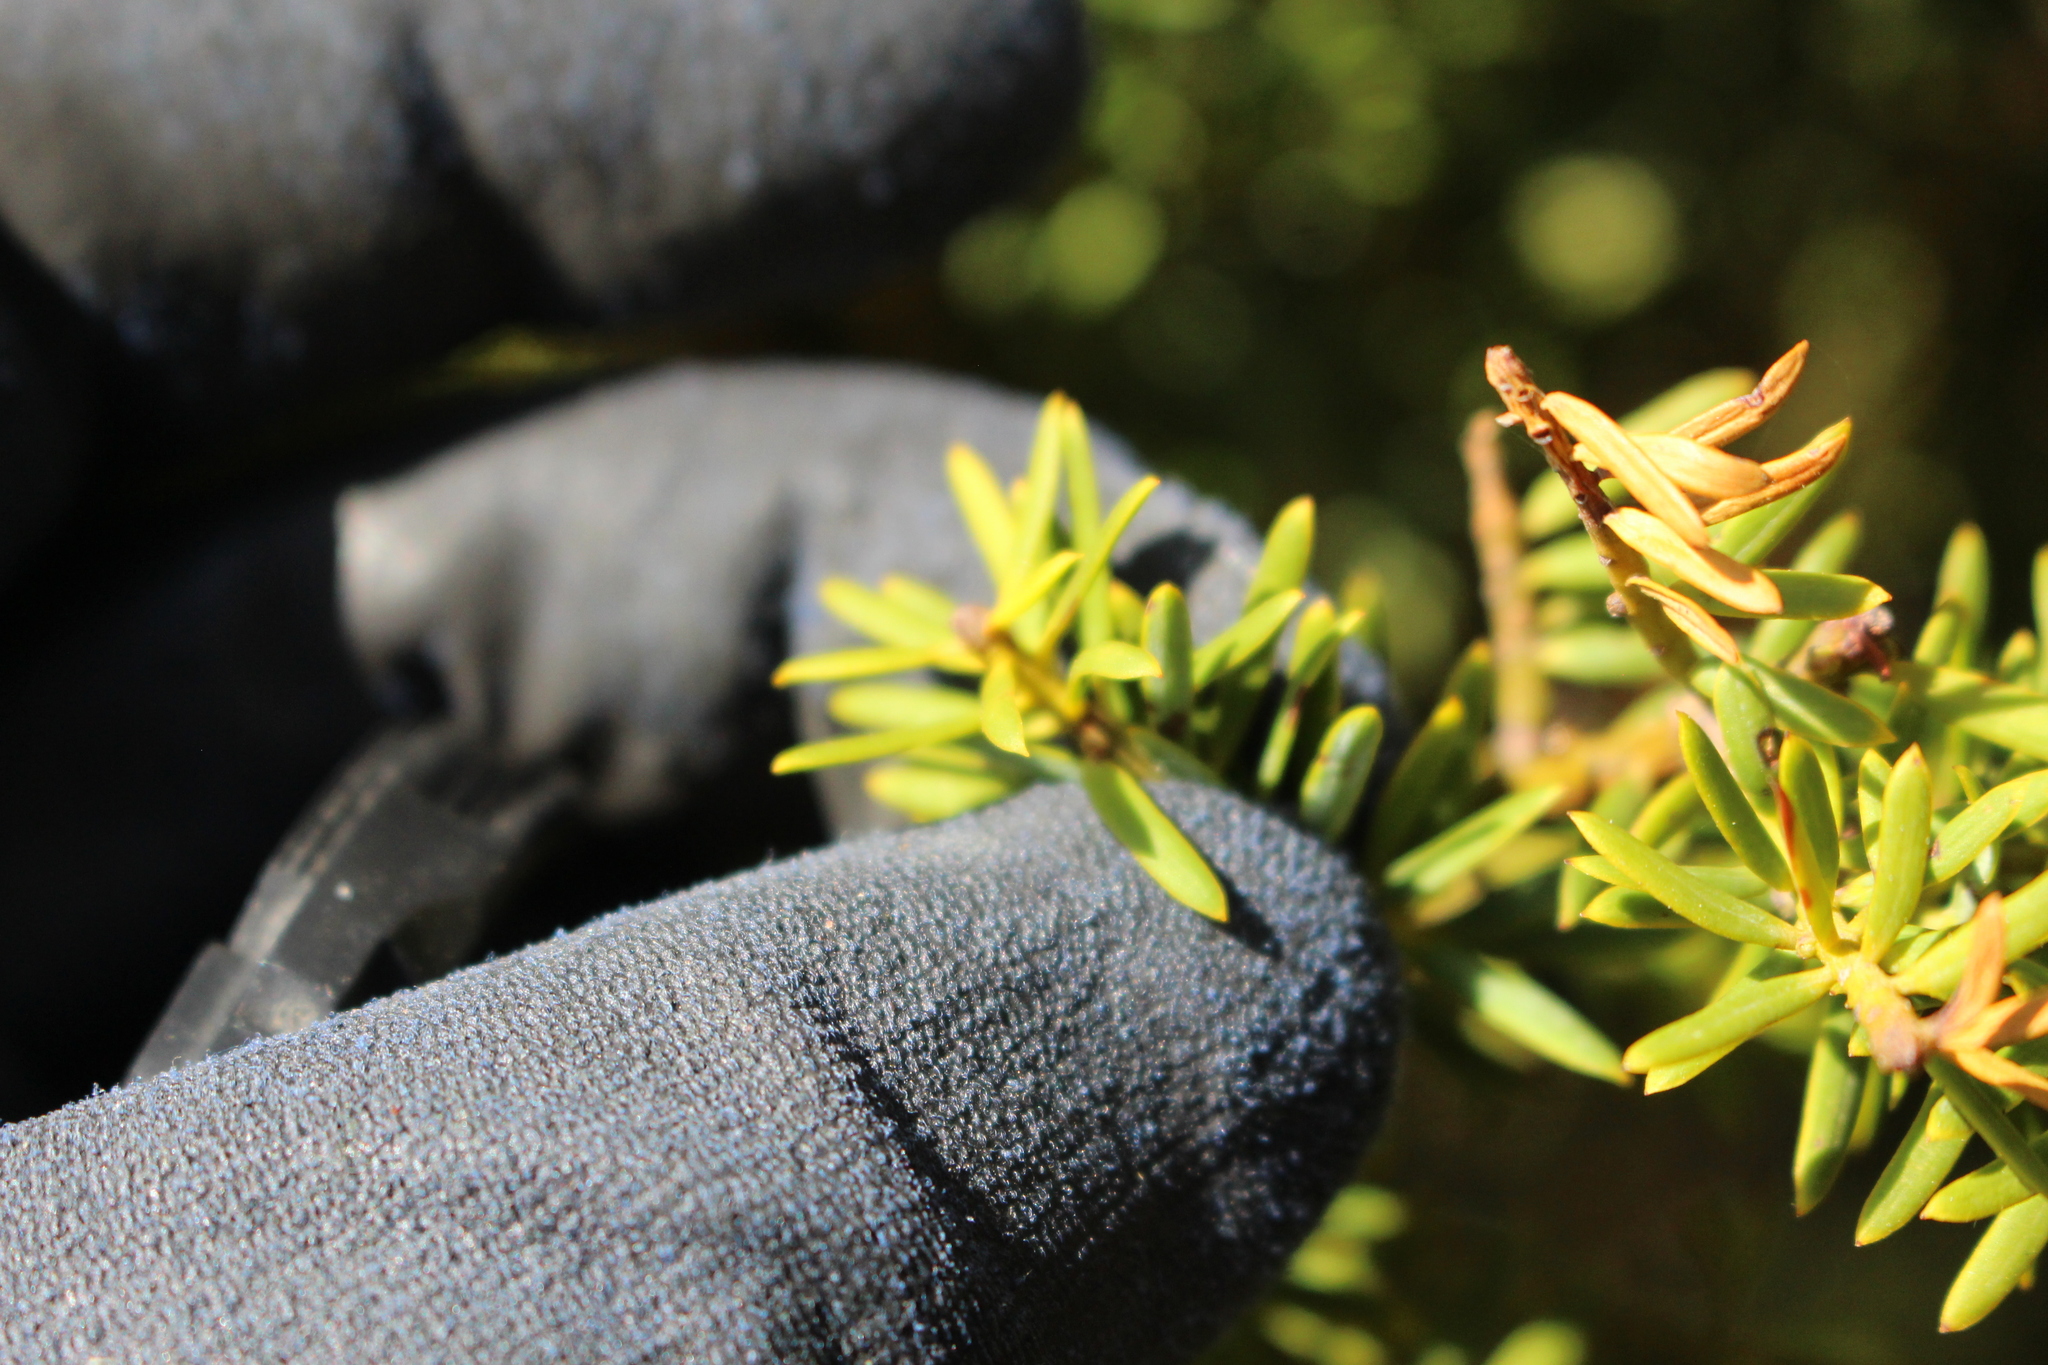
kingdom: Plantae
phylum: Tracheophyta
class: Pinopsida
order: Pinales
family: Podocarpaceae
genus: Podocarpus
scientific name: Podocarpus totara
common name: Totara
